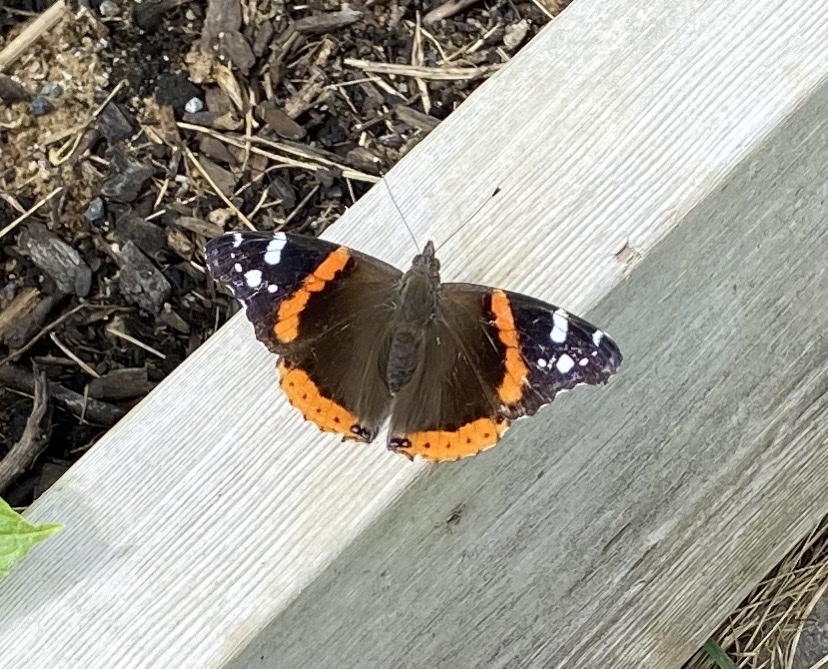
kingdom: Animalia
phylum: Arthropoda
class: Insecta
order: Lepidoptera
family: Nymphalidae
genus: Vanessa
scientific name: Vanessa atalanta
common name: Red admiral
